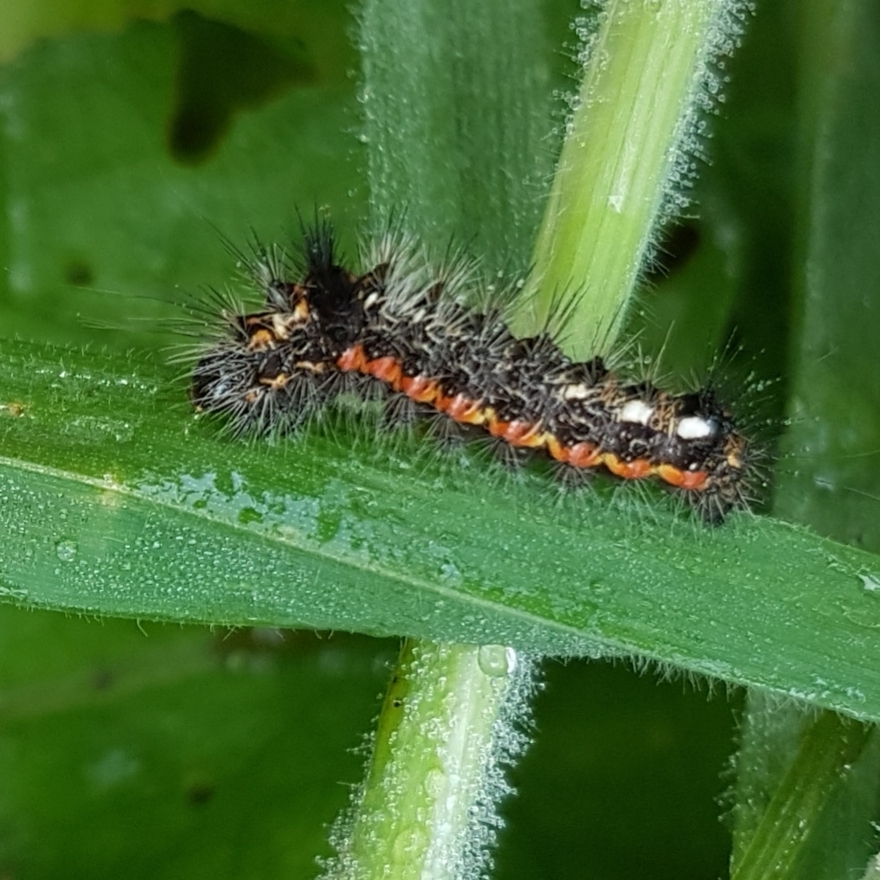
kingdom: Animalia
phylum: Arthropoda
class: Insecta
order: Lepidoptera
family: Noctuidae
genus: Acronicta
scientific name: Acronicta rumicis
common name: Knot grass
